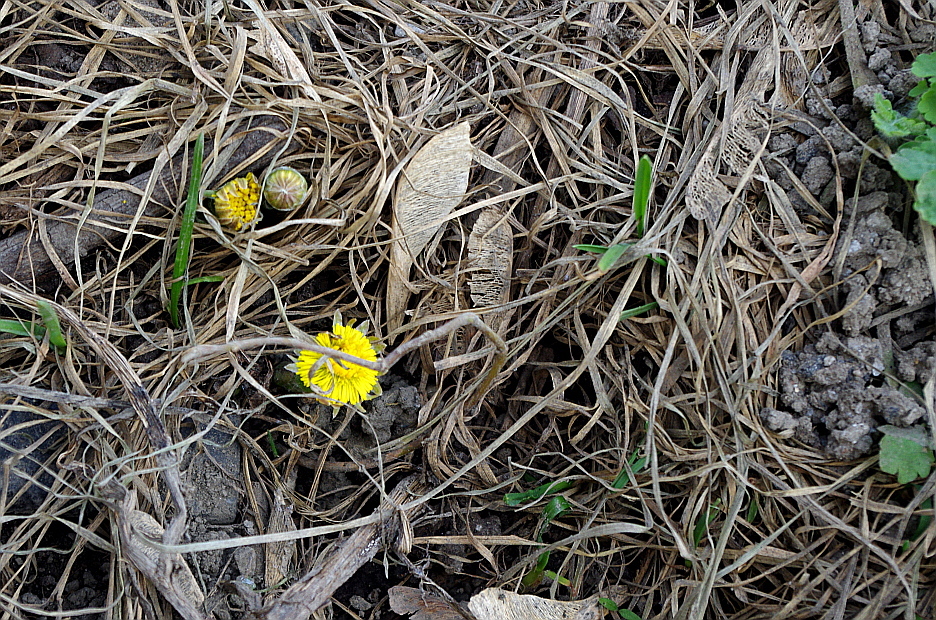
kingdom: Plantae
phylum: Tracheophyta
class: Magnoliopsida
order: Asterales
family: Asteraceae
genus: Tussilago
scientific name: Tussilago farfara
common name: Coltsfoot
